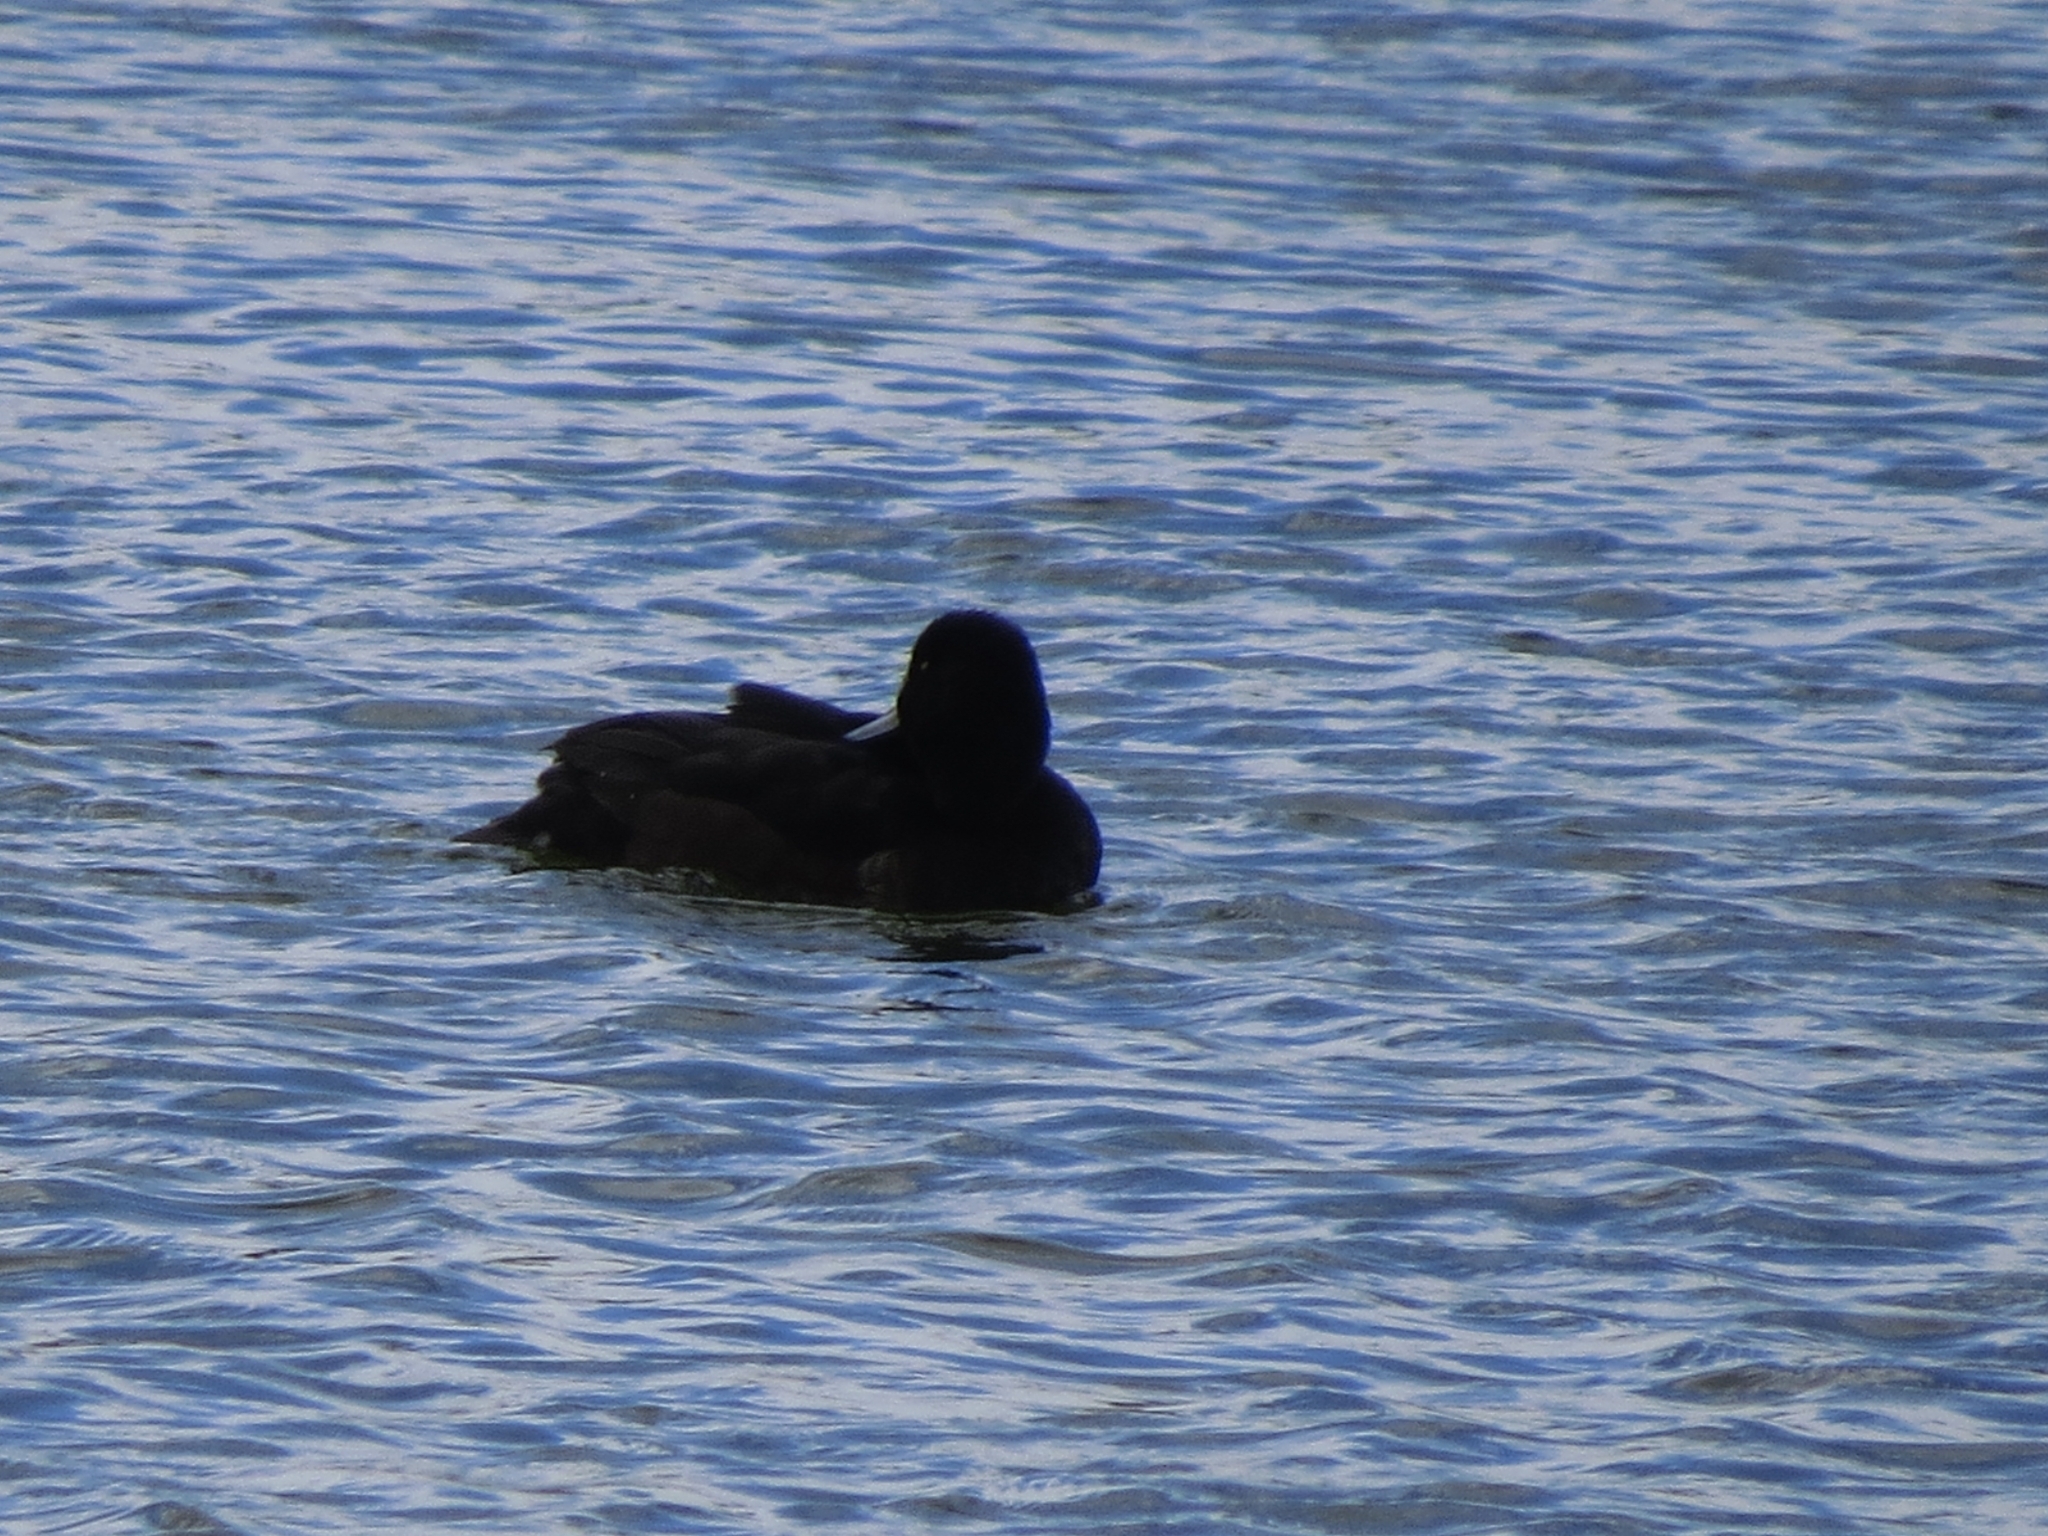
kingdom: Animalia
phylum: Chordata
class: Aves
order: Anseriformes
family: Anatidae
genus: Aythya
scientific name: Aythya fuligula
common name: Tufted duck
